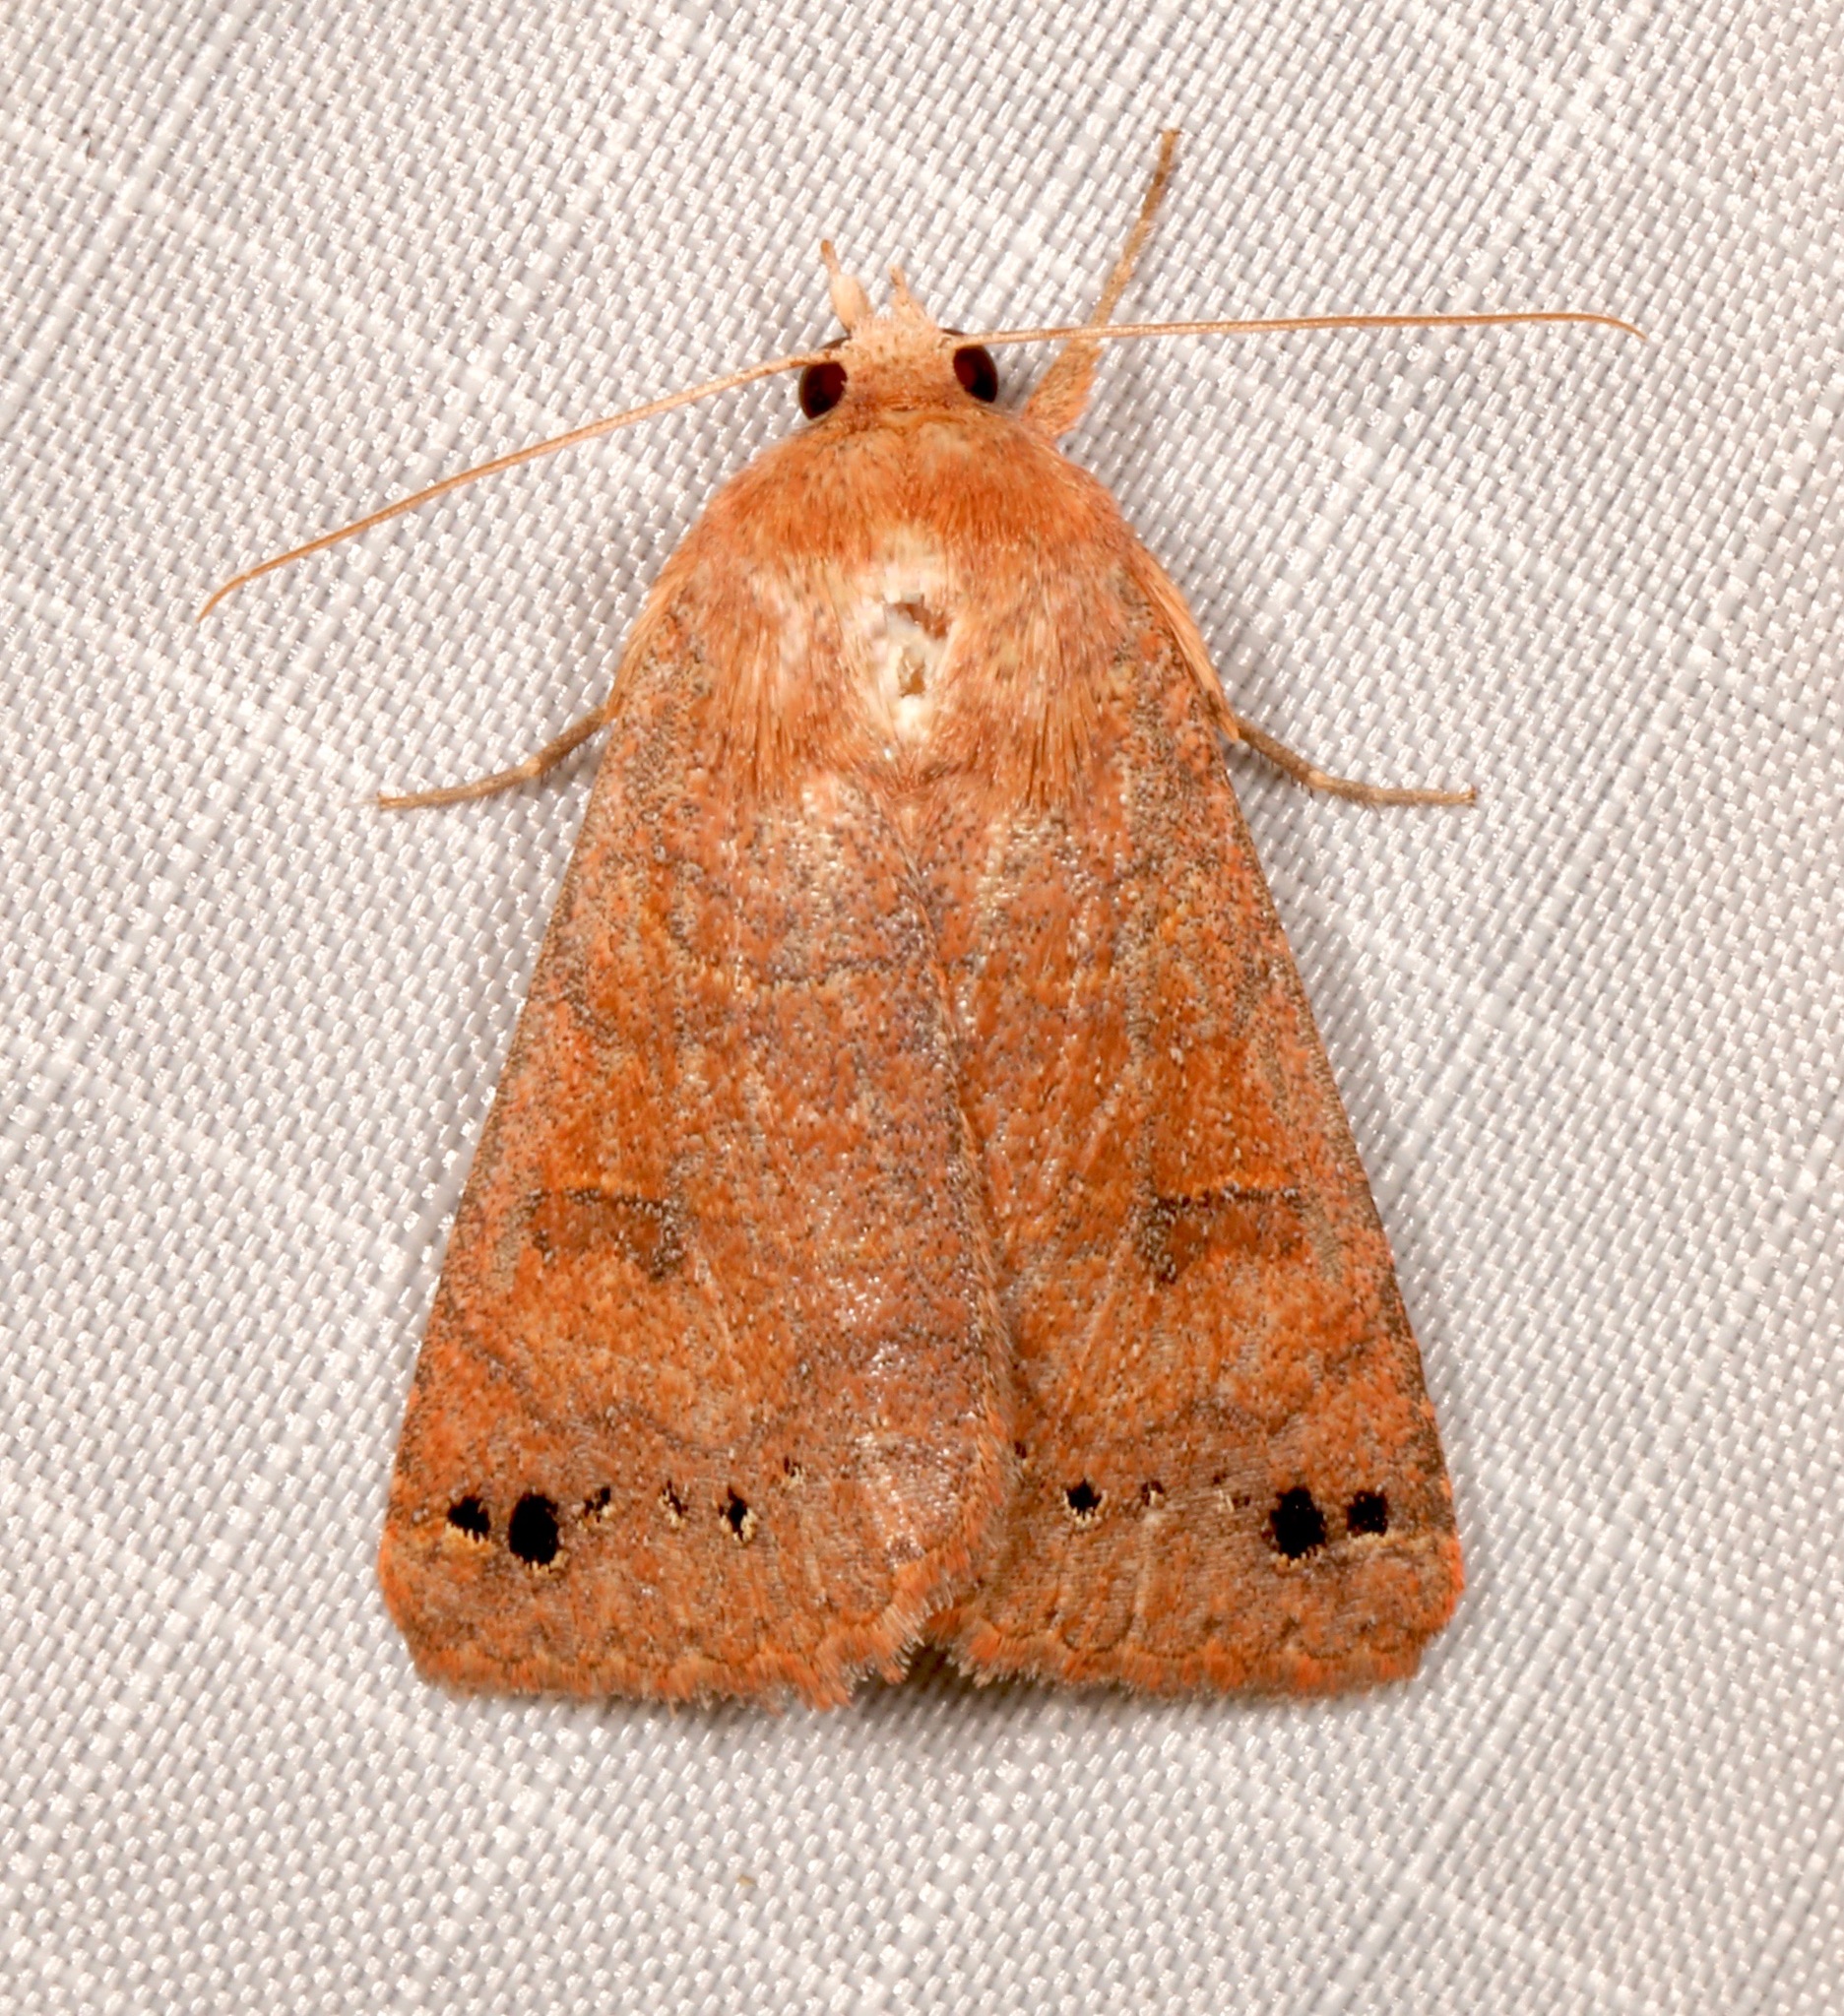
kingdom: Animalia
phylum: Arthropoda
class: Insecta
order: Lepidoptera
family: Erebidae
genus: Cissusa
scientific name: Cissusa spadix
